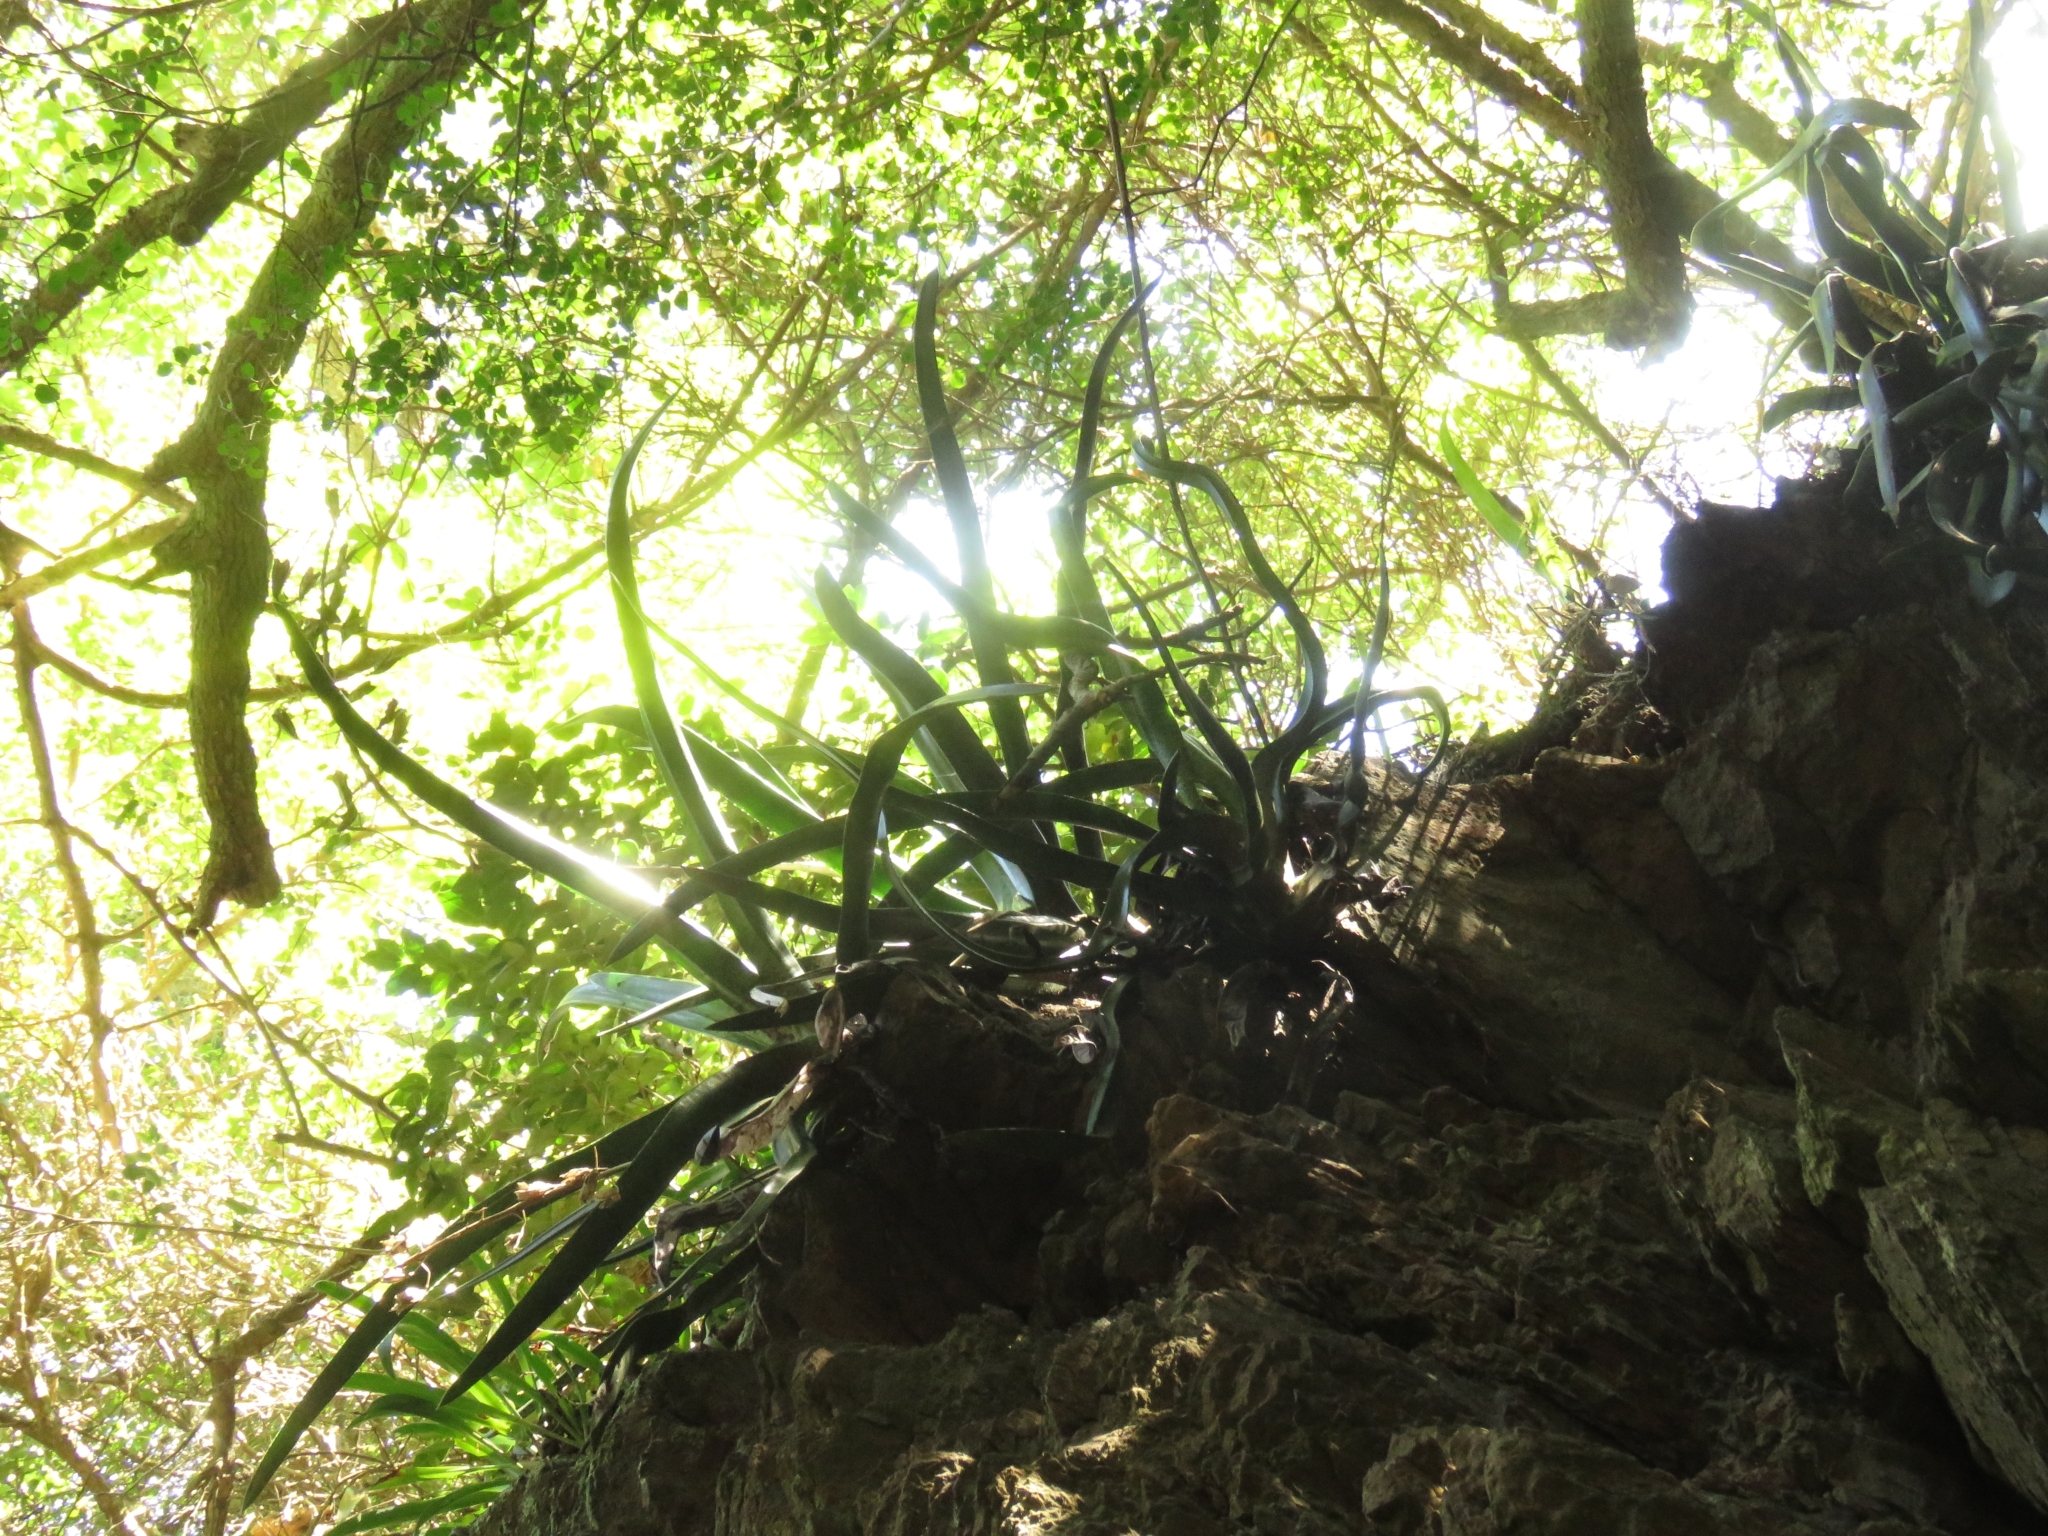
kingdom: Plantae
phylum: Tracheophyta
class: Liliopsida
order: Asparagales
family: Asphodelaceae
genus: Gasteria
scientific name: Gasteria acinacifolia
